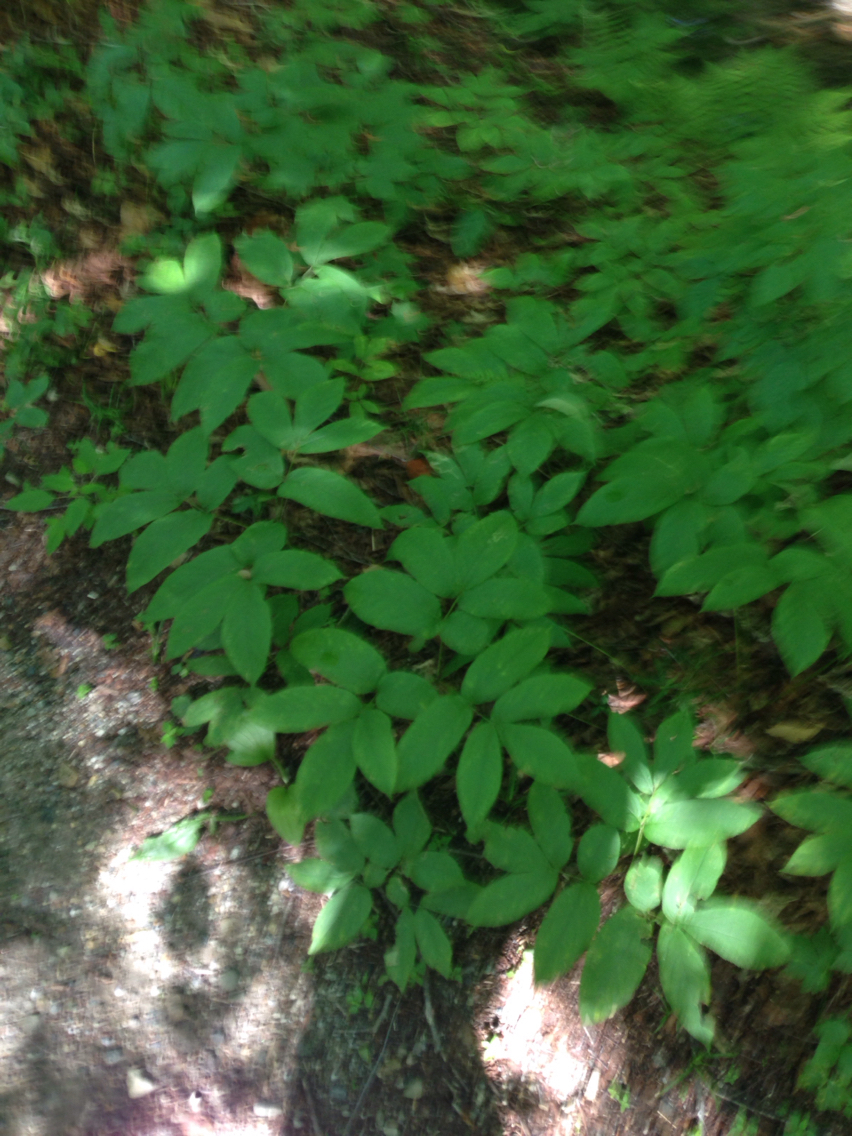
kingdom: Plantae
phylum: Tracheophyta
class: Magnoliopsida
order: Apiales
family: Araliaceae
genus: Aralia
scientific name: Aralia nudicaulis
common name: Wild sarsaparilla
